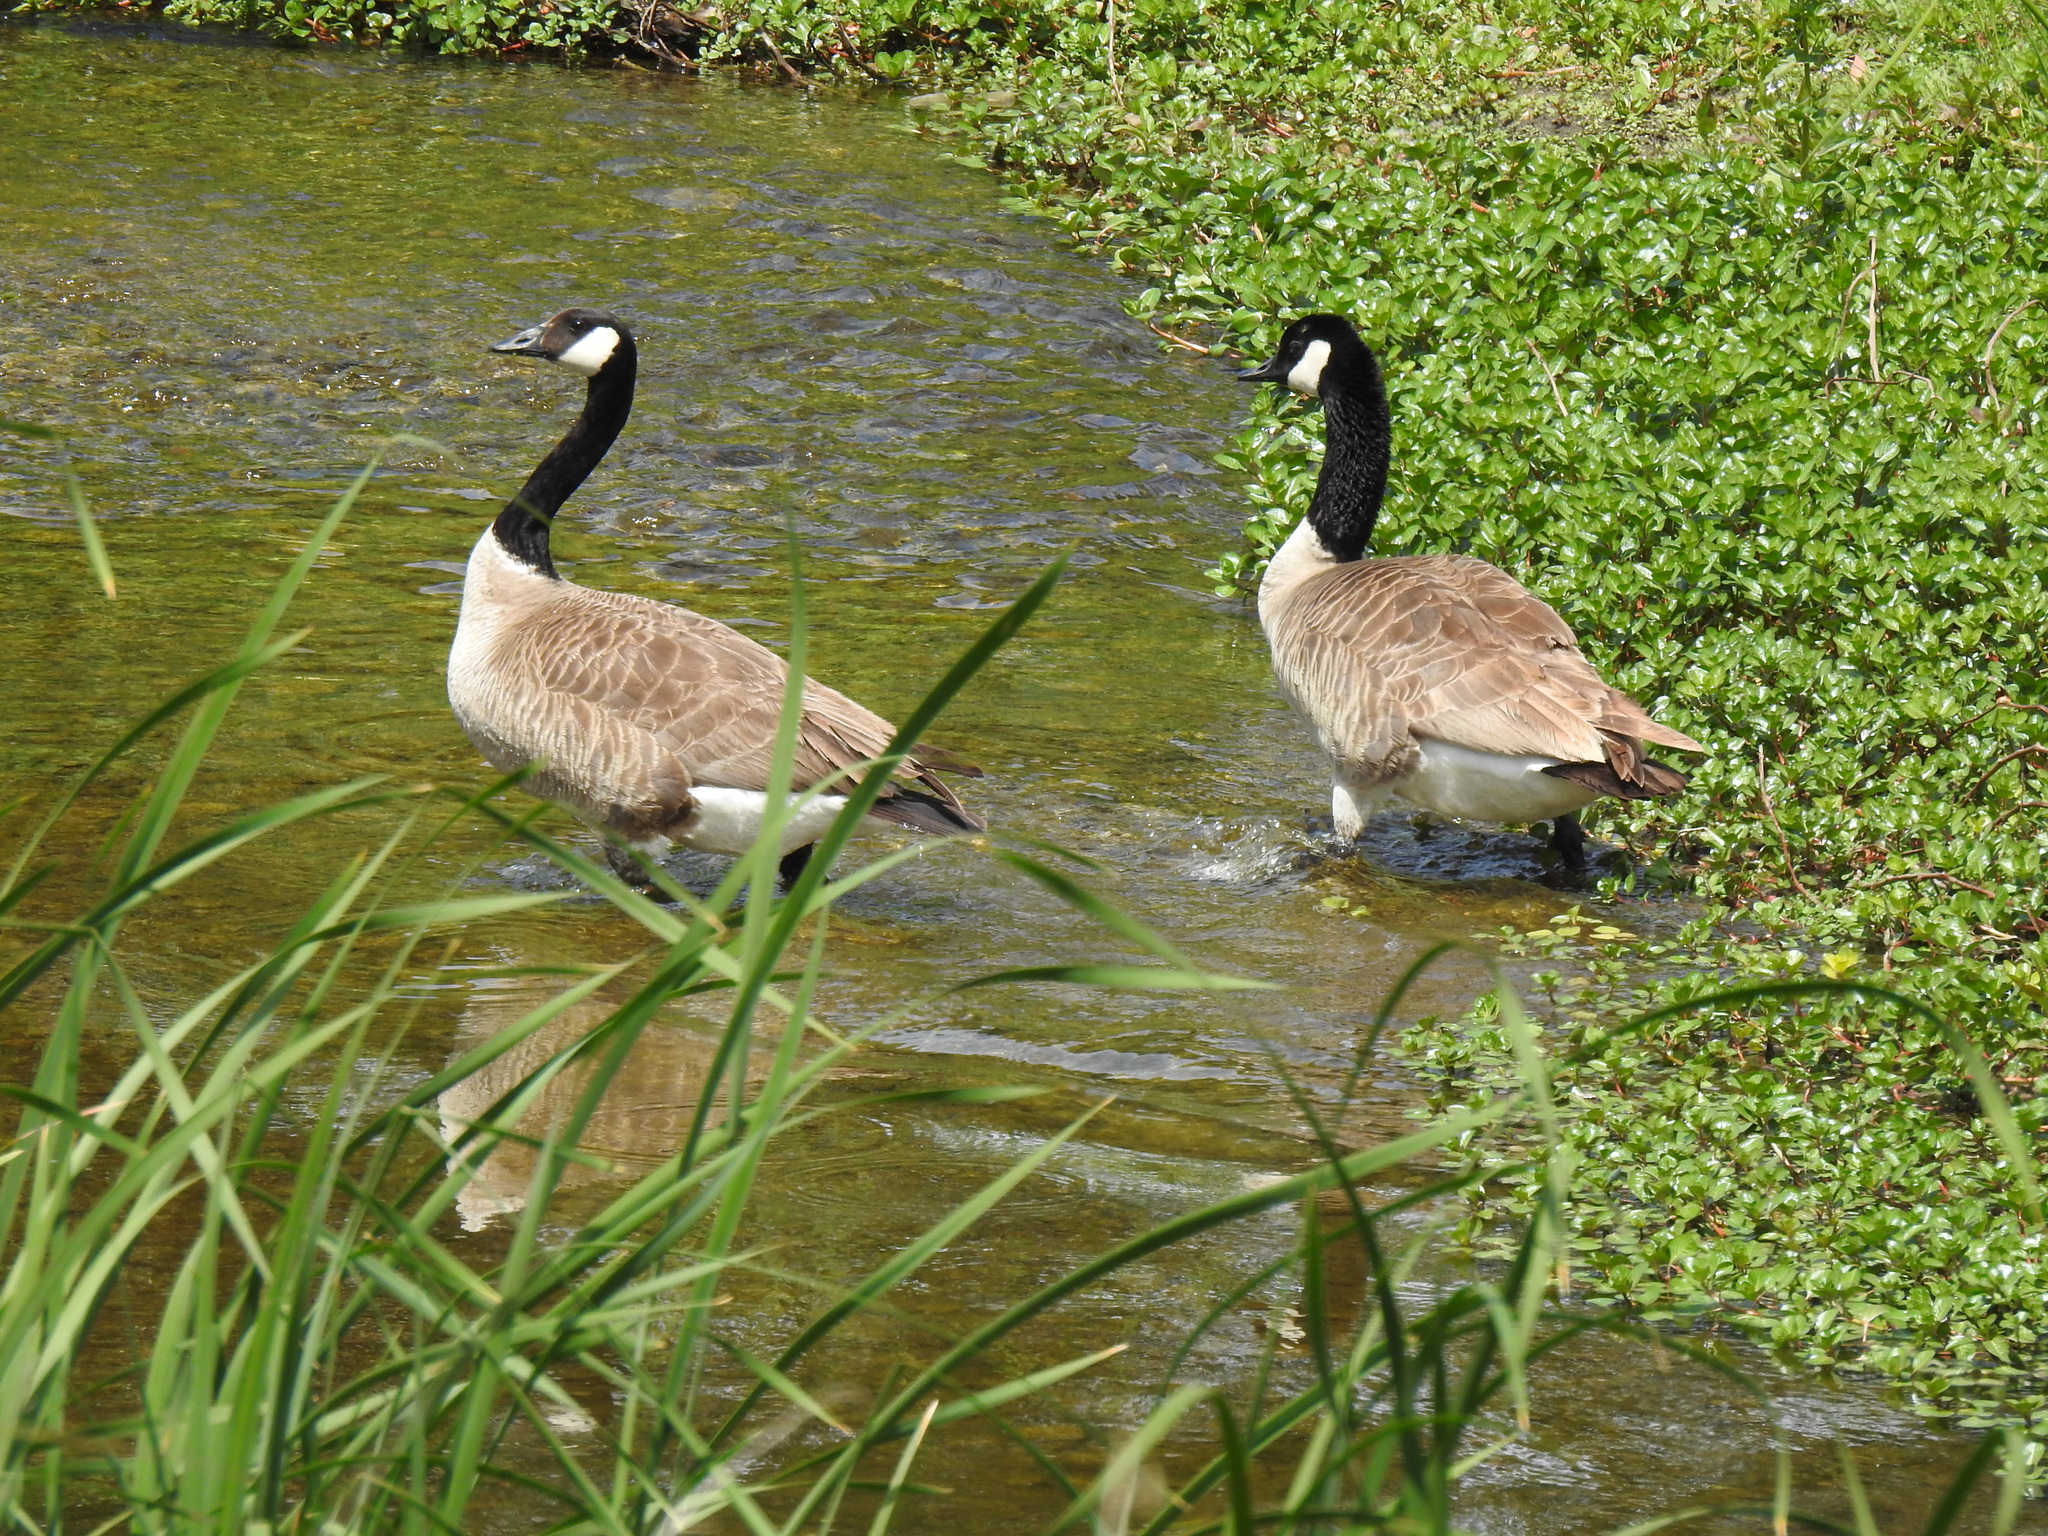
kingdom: Animalia
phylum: Chordata
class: Aves
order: Anseriformes
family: Anatidae
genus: Branta
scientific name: Branta canadensis
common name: Canada goose
